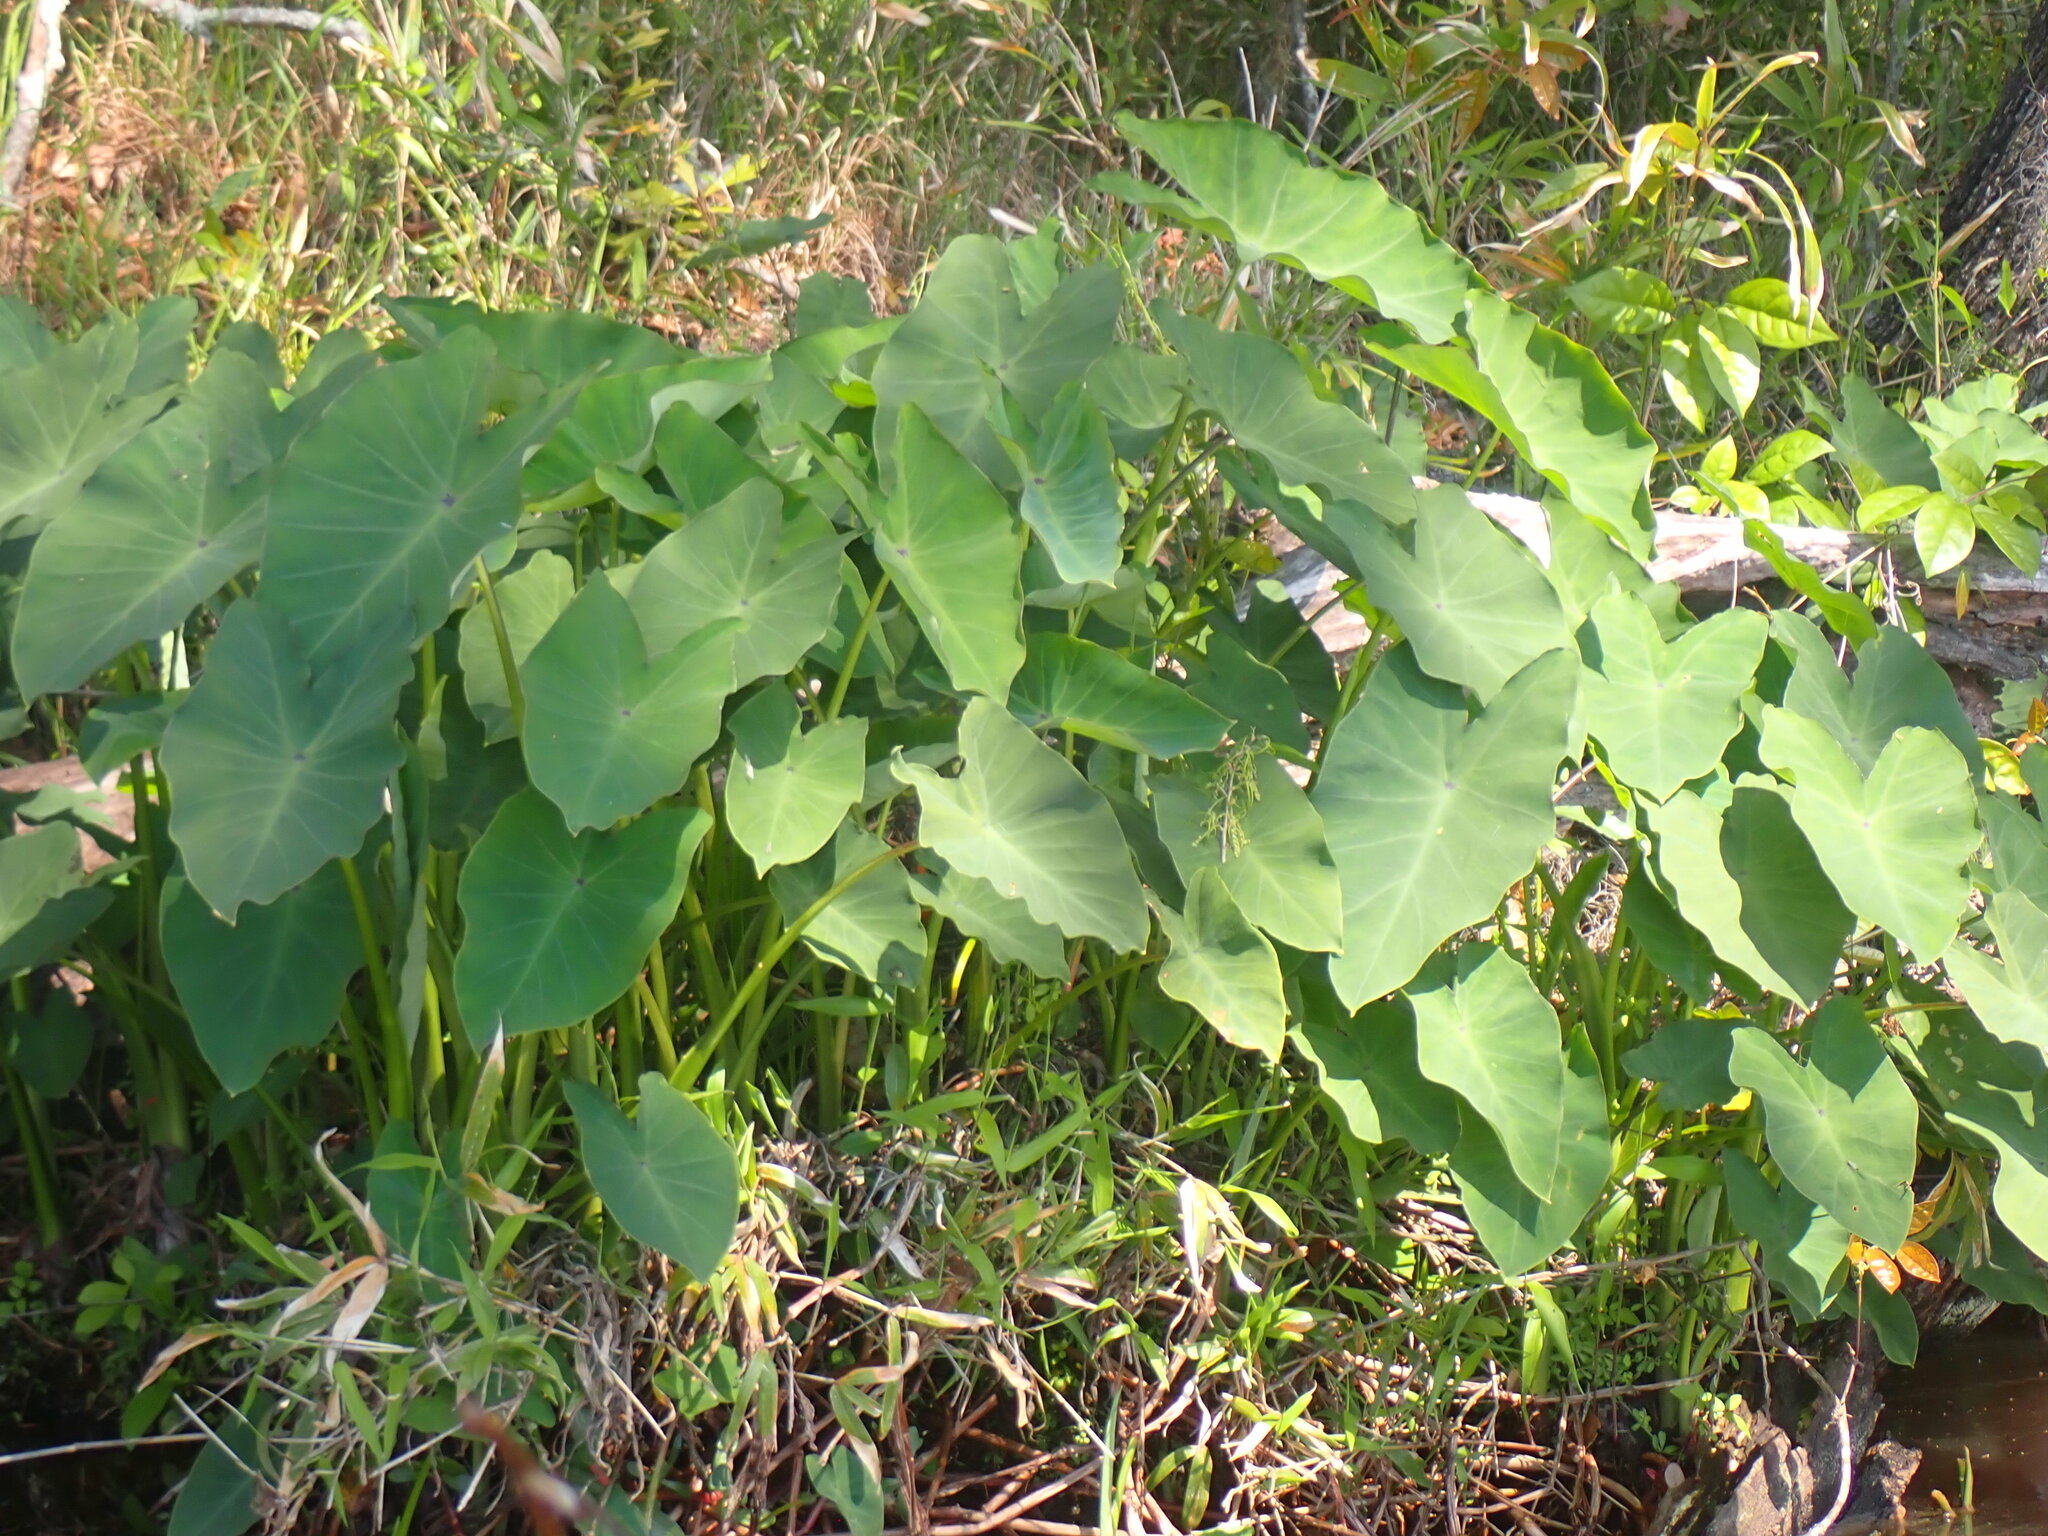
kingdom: Plantae
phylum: Tracheophyta
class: Liliopsida
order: Alismatales
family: Araceae
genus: Colocasia
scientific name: Colocasia esculenta
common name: Taro
